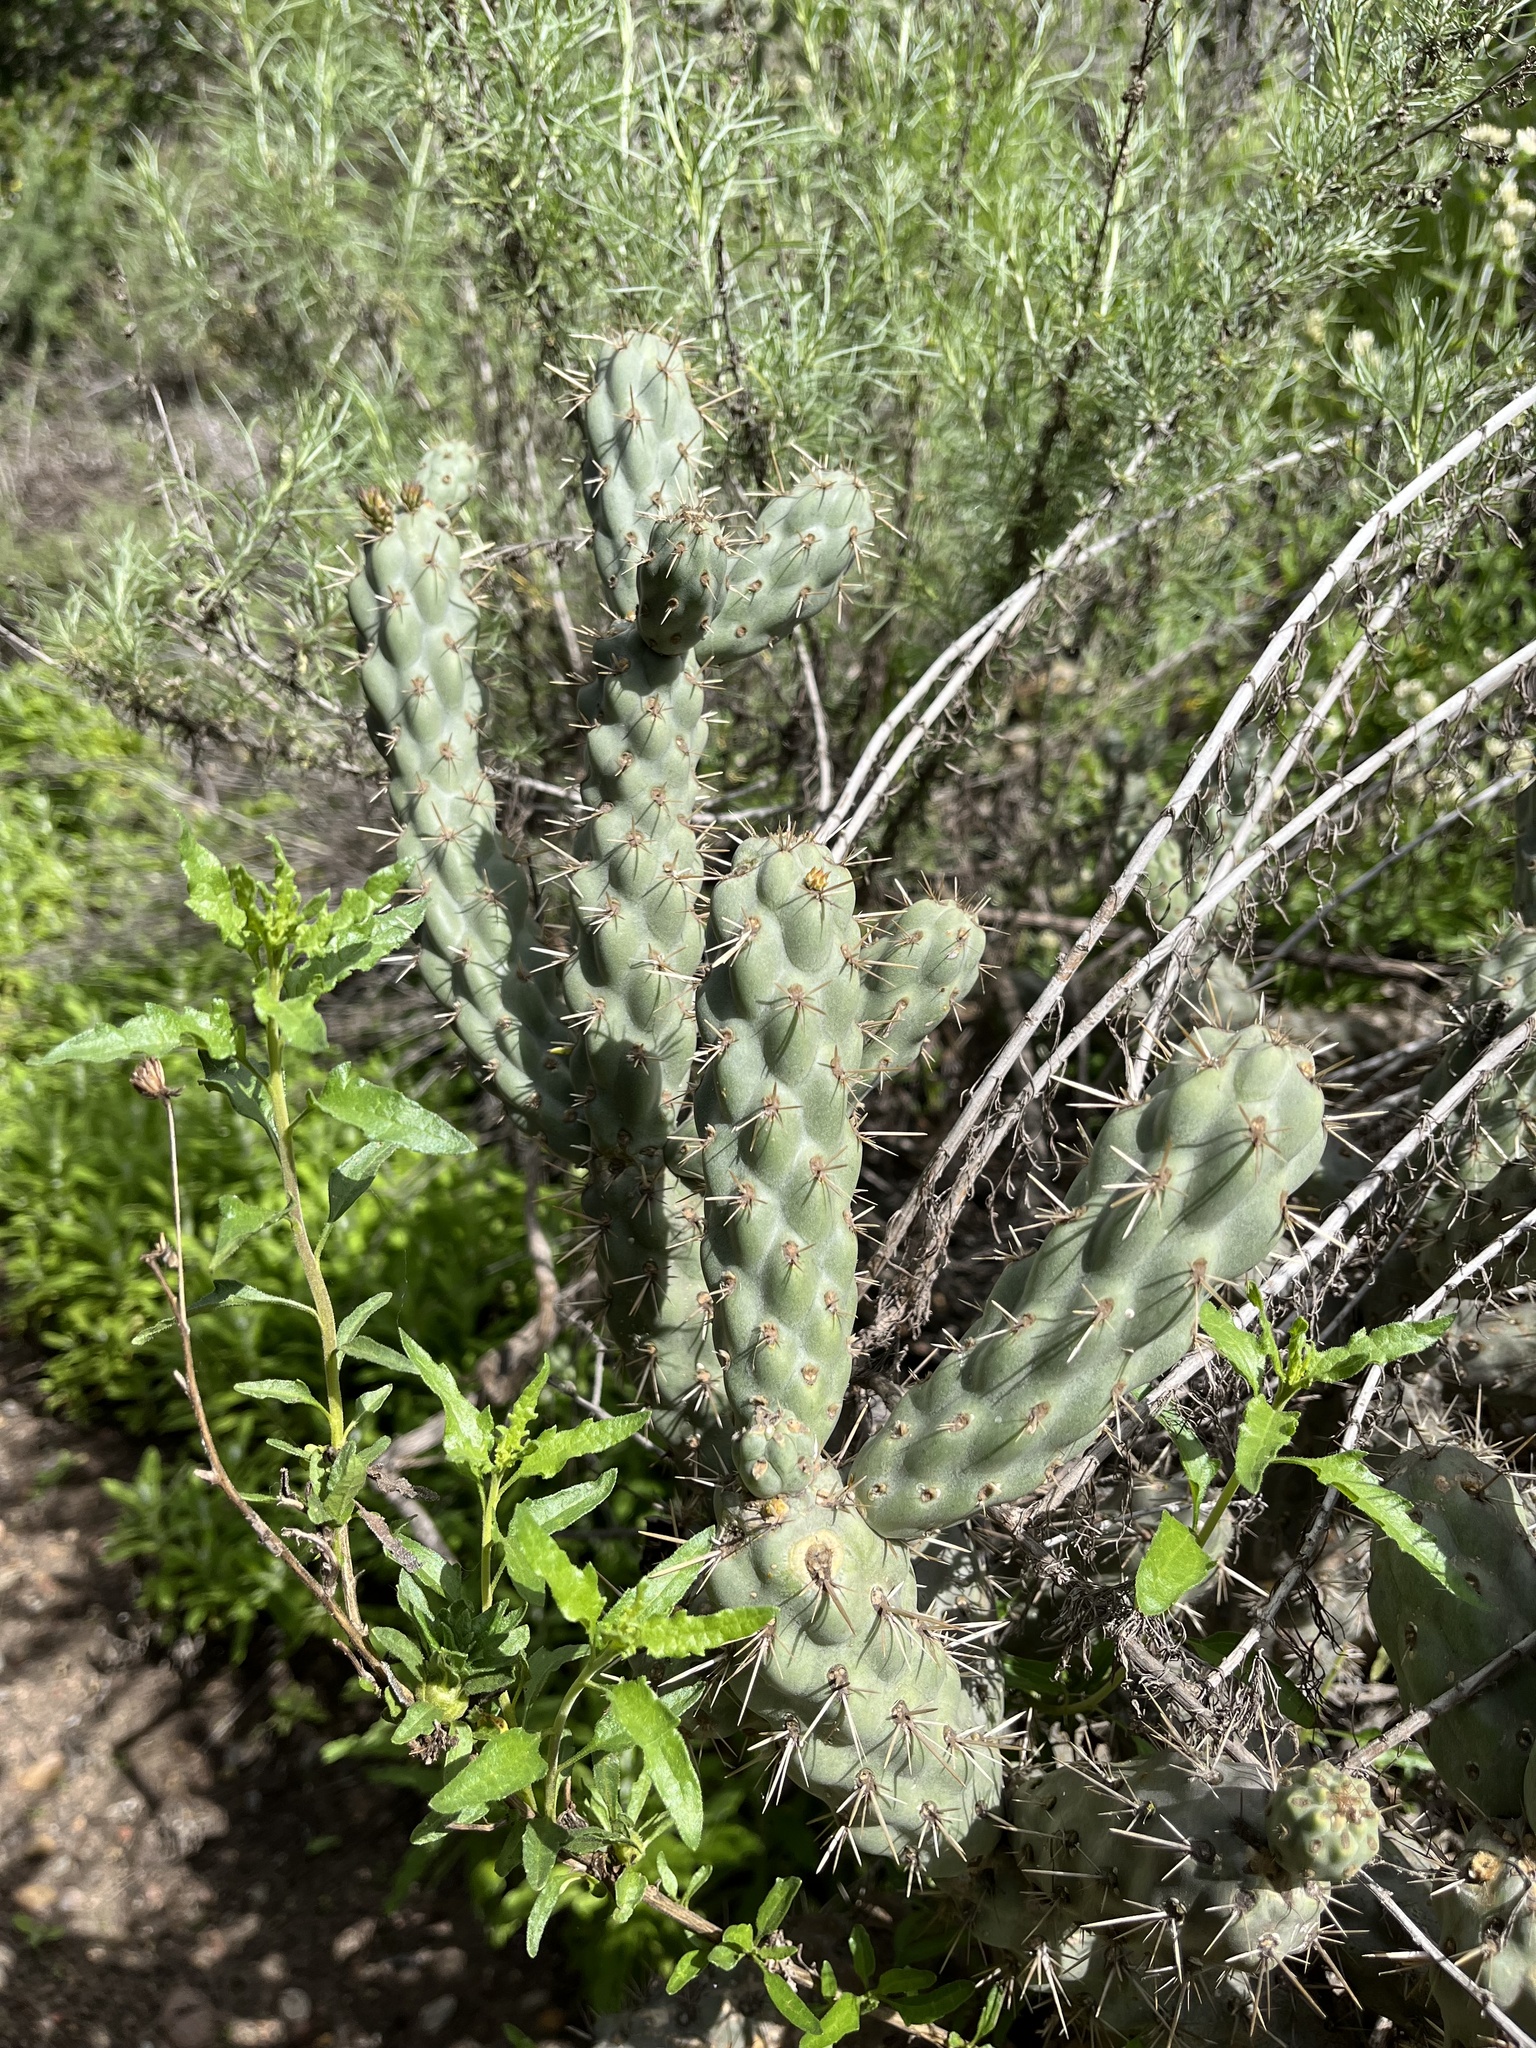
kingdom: Plantae
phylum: Tracheophyta
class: Magnoliopsida
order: Caryophyllales
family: Cactaceae
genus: Cylindropuntia
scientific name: Cylindropuntia prolifera
